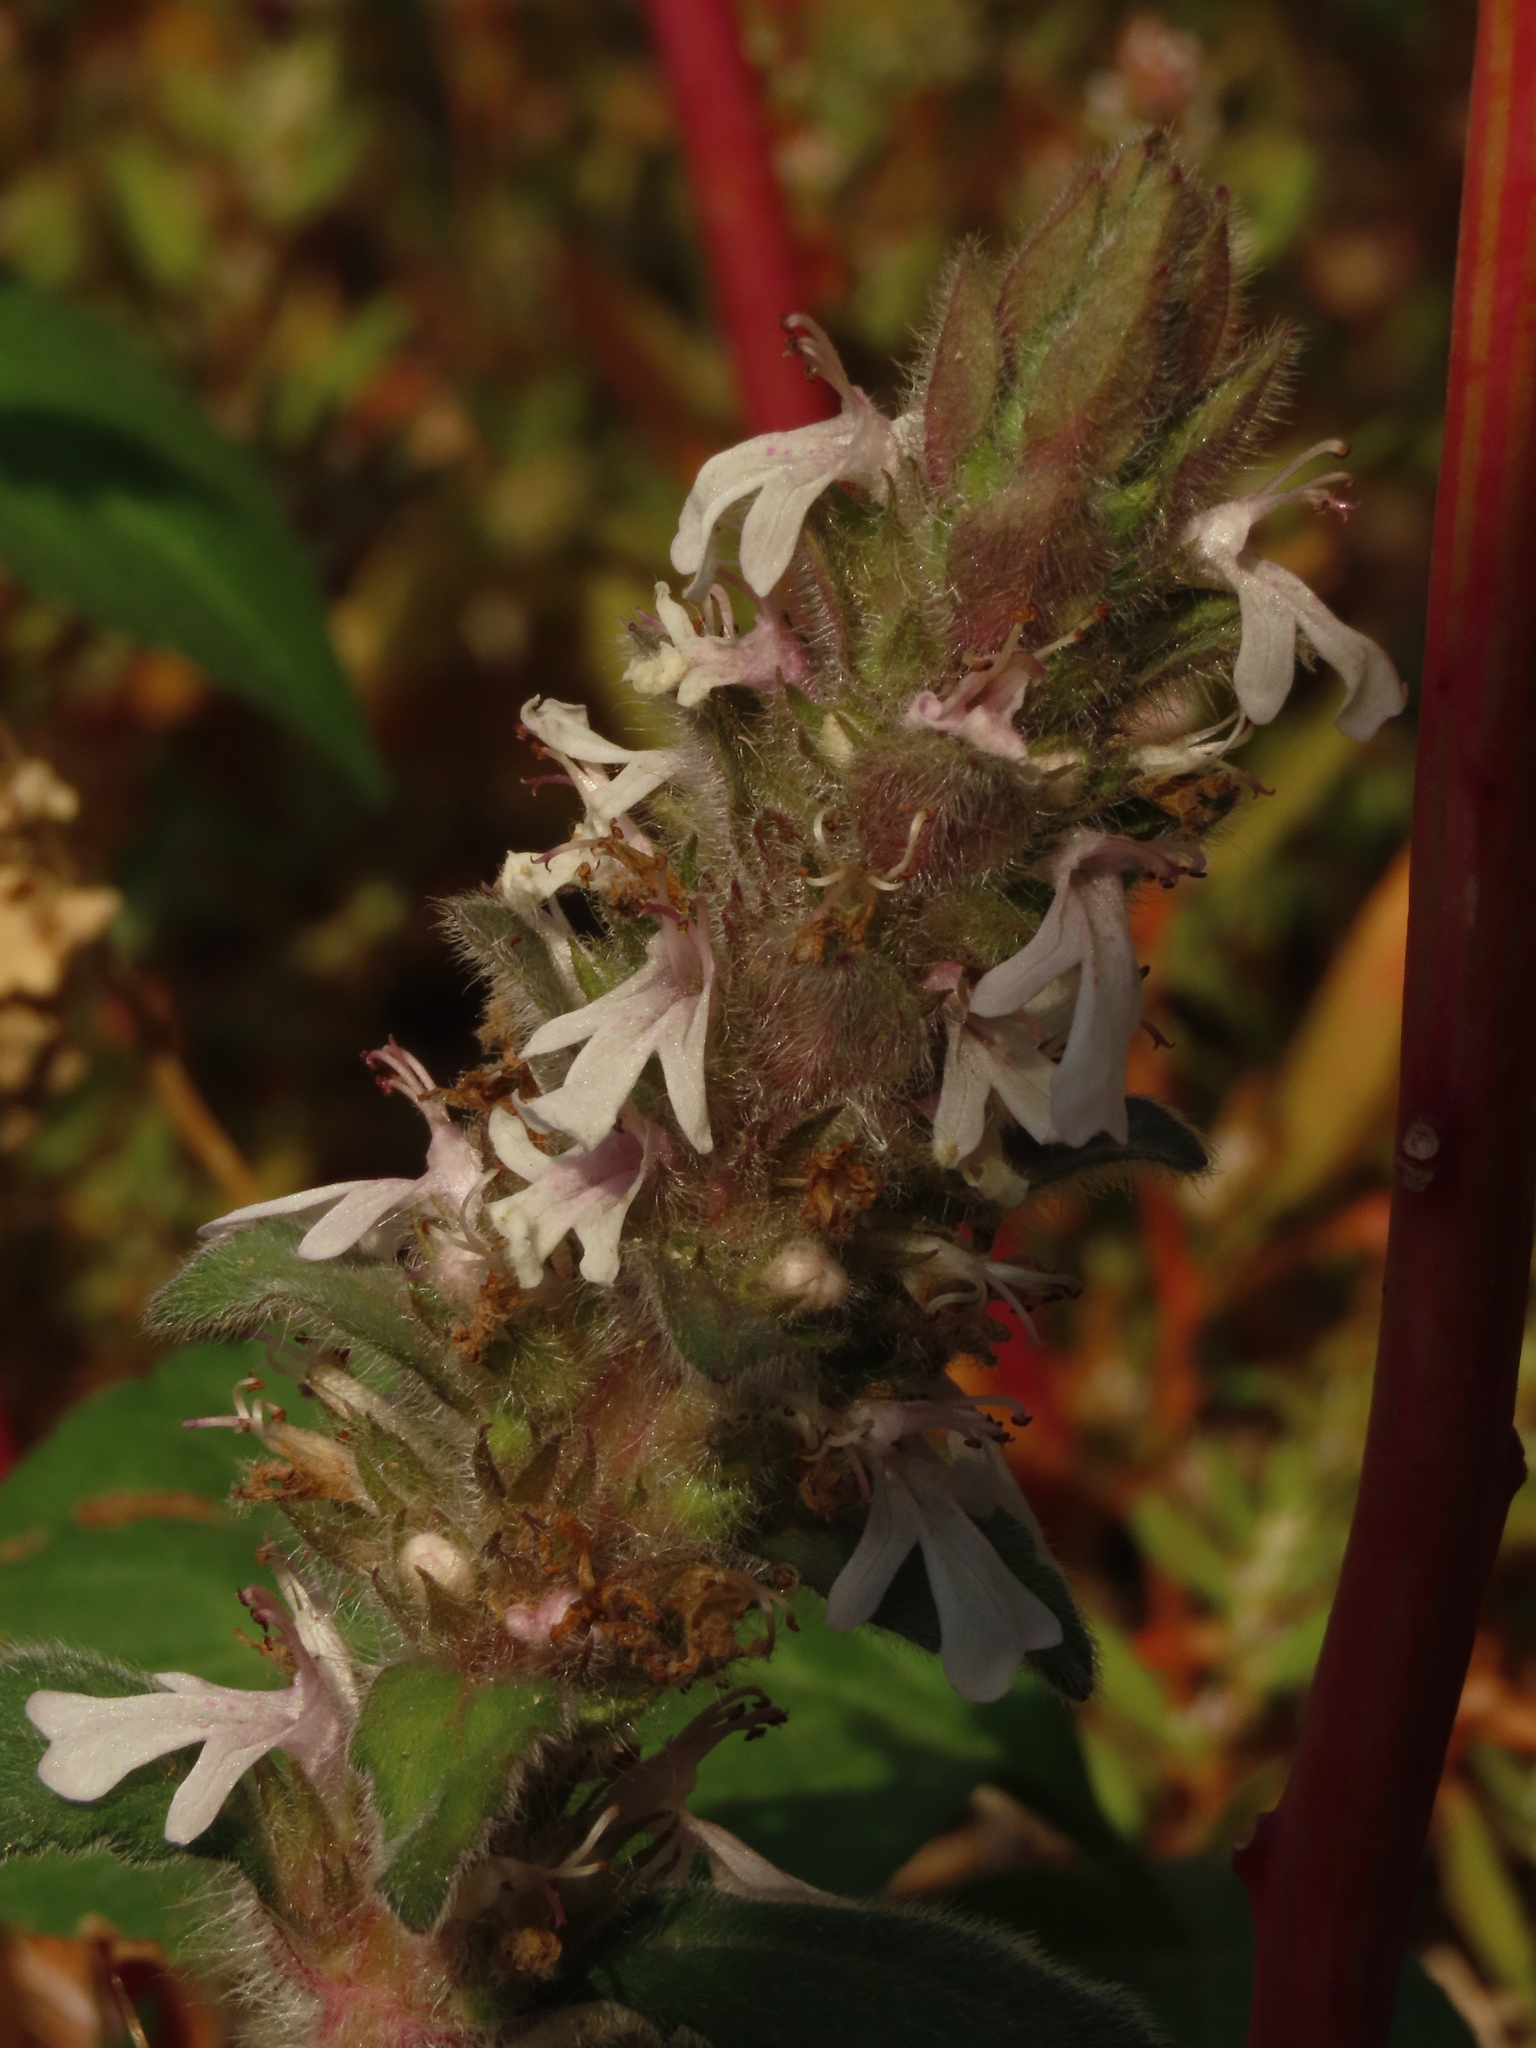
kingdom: Plantae
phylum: Tracheophyta
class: Magnoliopsida
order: Lamiales
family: Lamiaceae
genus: Ajuga
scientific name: Ajuga nipponensis
